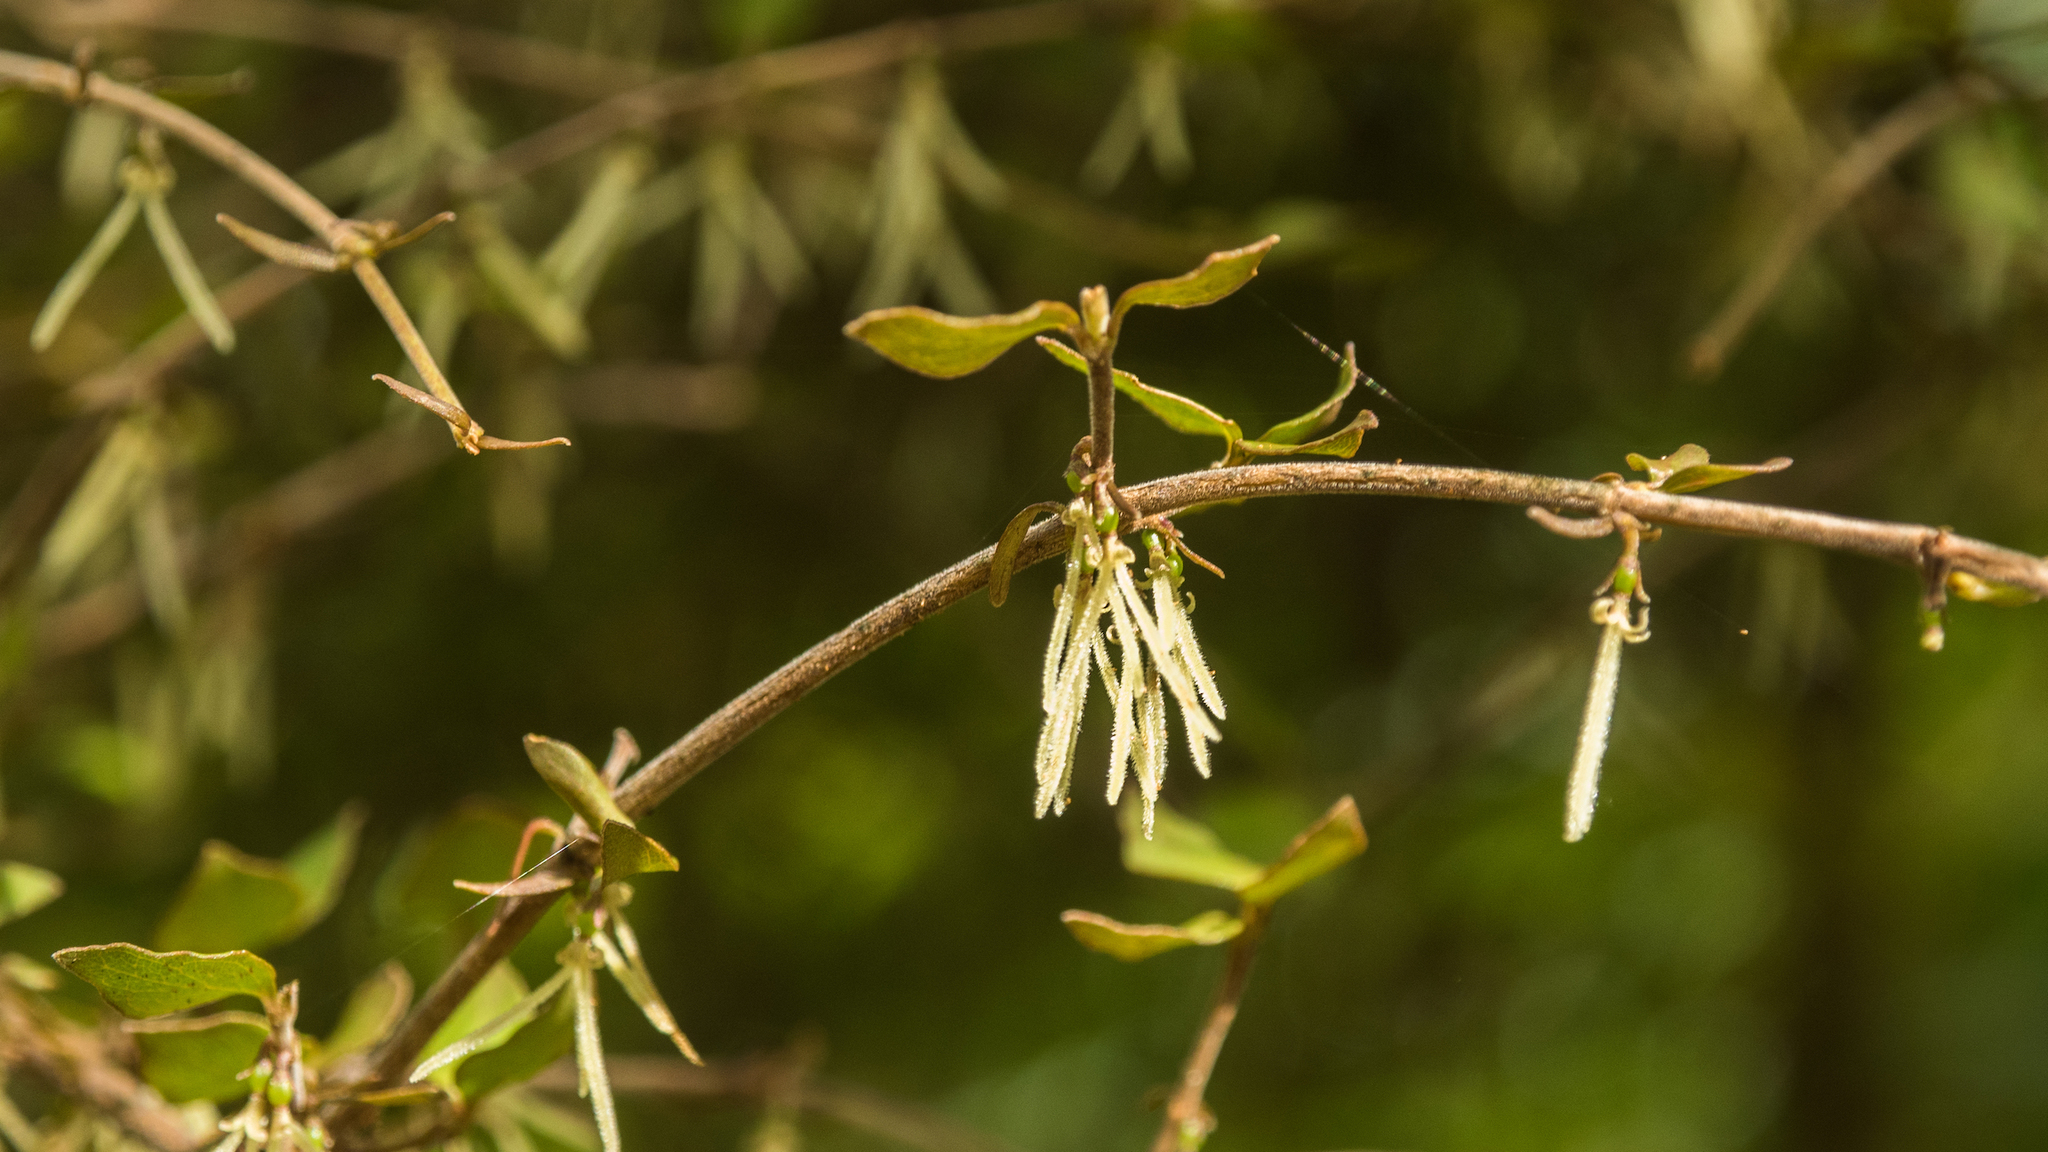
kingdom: Plantae
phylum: Tracheophyta
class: Magnoliopsida
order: Gentianales
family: Rubiaceae
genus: Coprosma
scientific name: Coprosma rhamnoides
